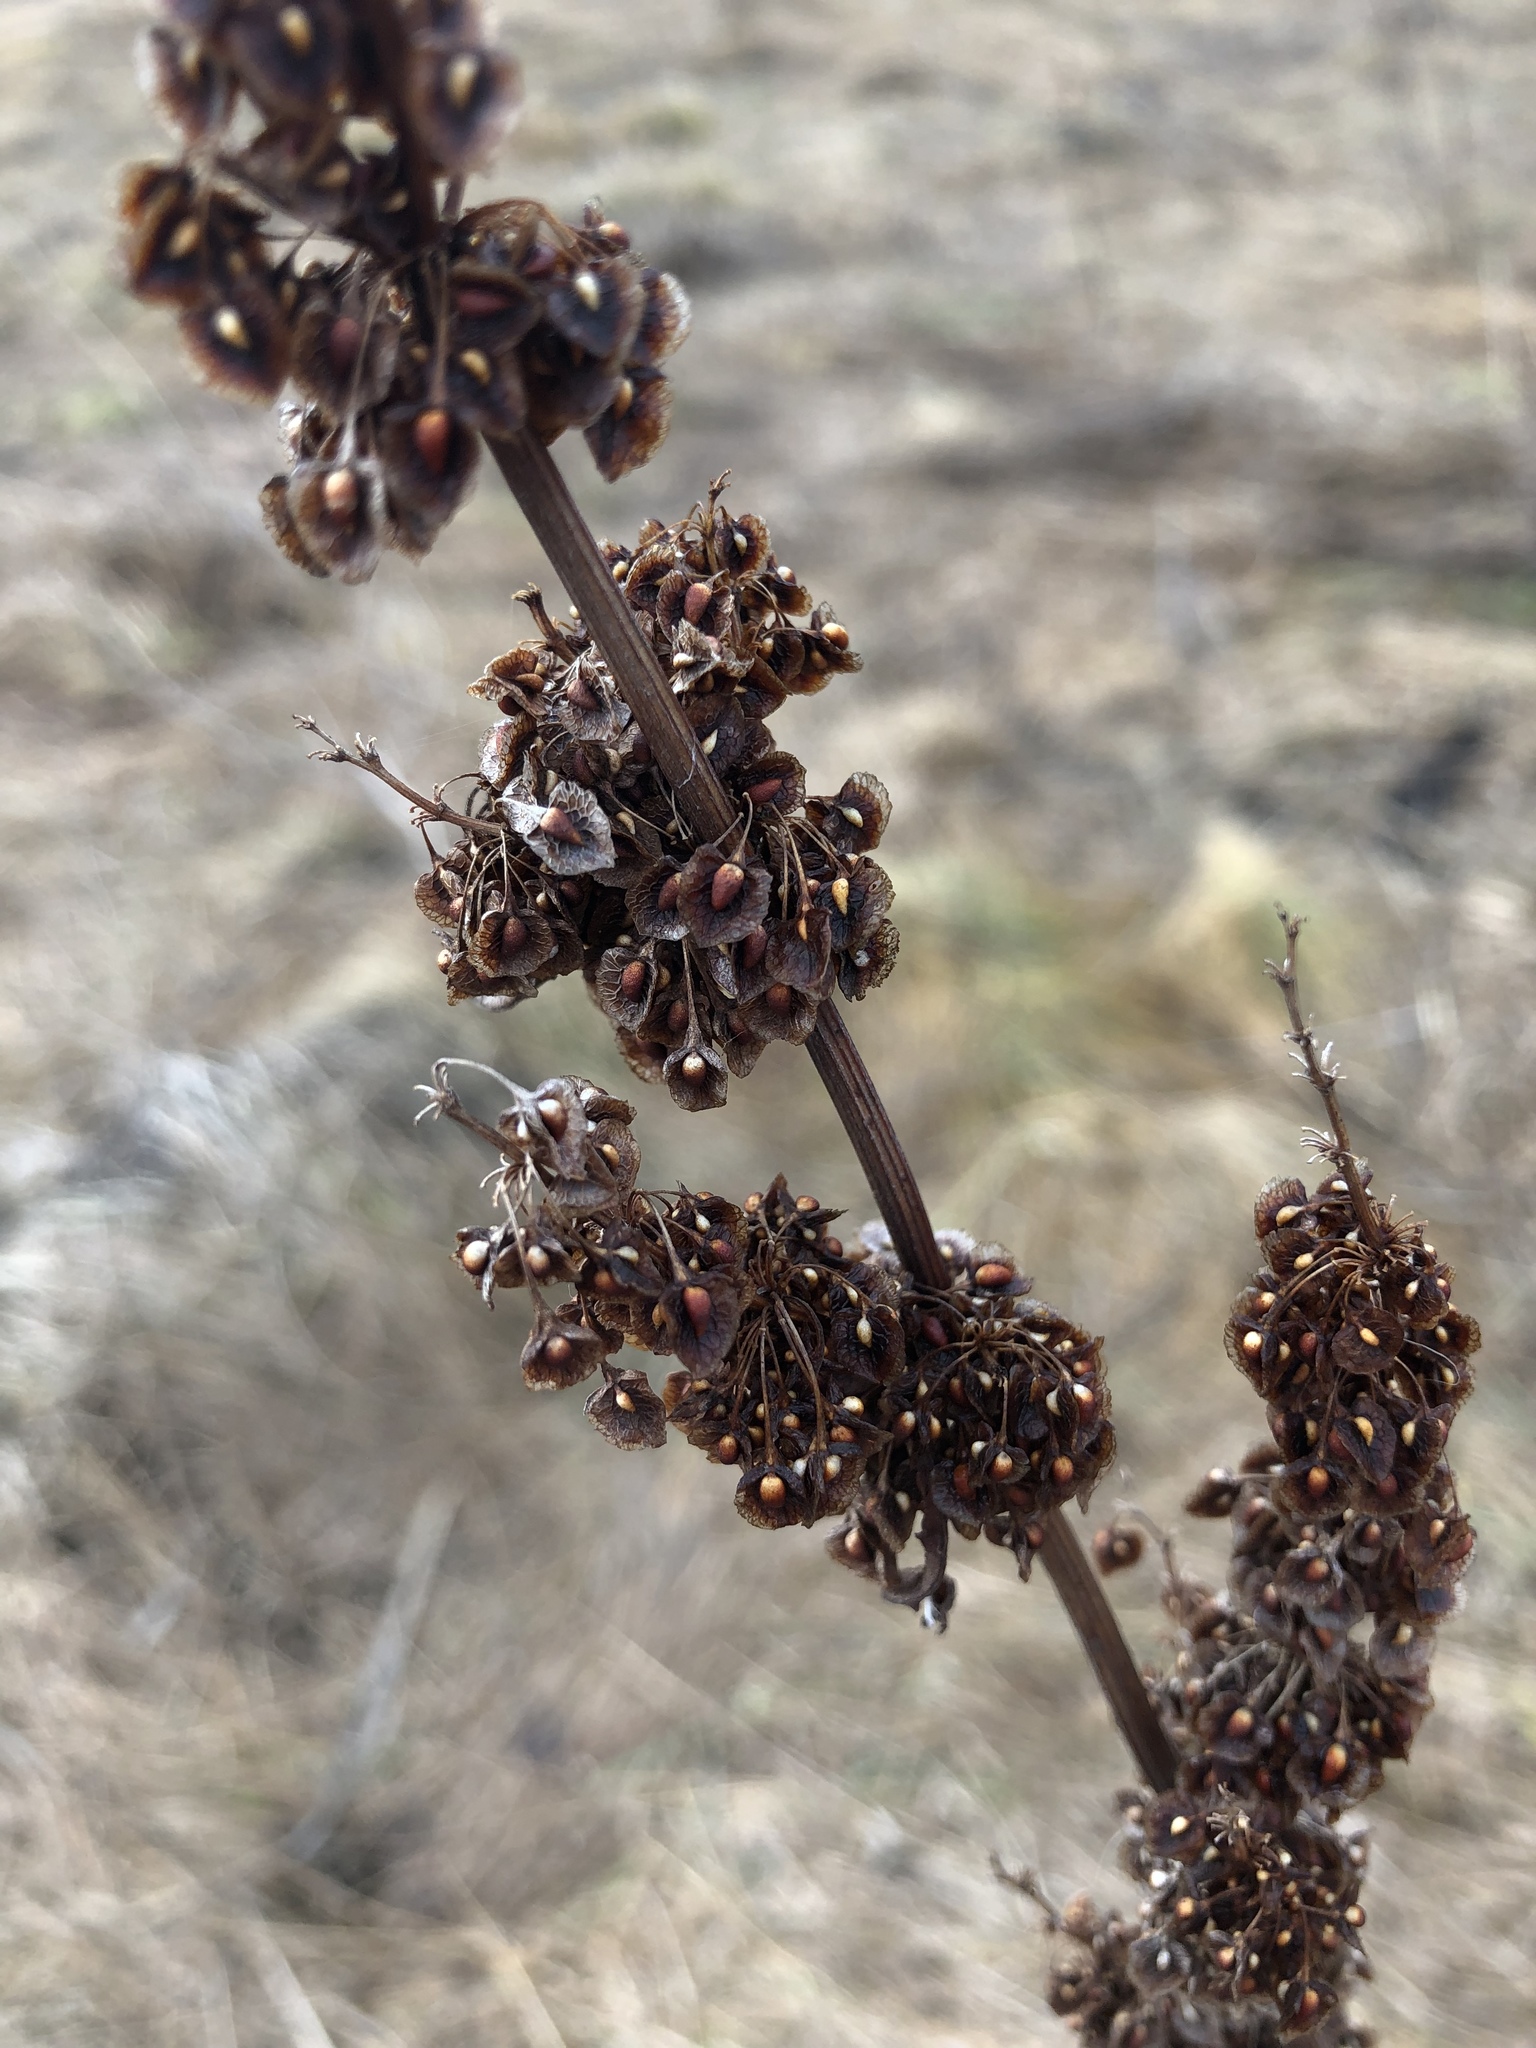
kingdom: Plantae
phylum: Tracheophyta
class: Magnoliopsida
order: Caryophyllales
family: Polygonaceae
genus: Rumex
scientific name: Rumex crispus
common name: Curled dock
